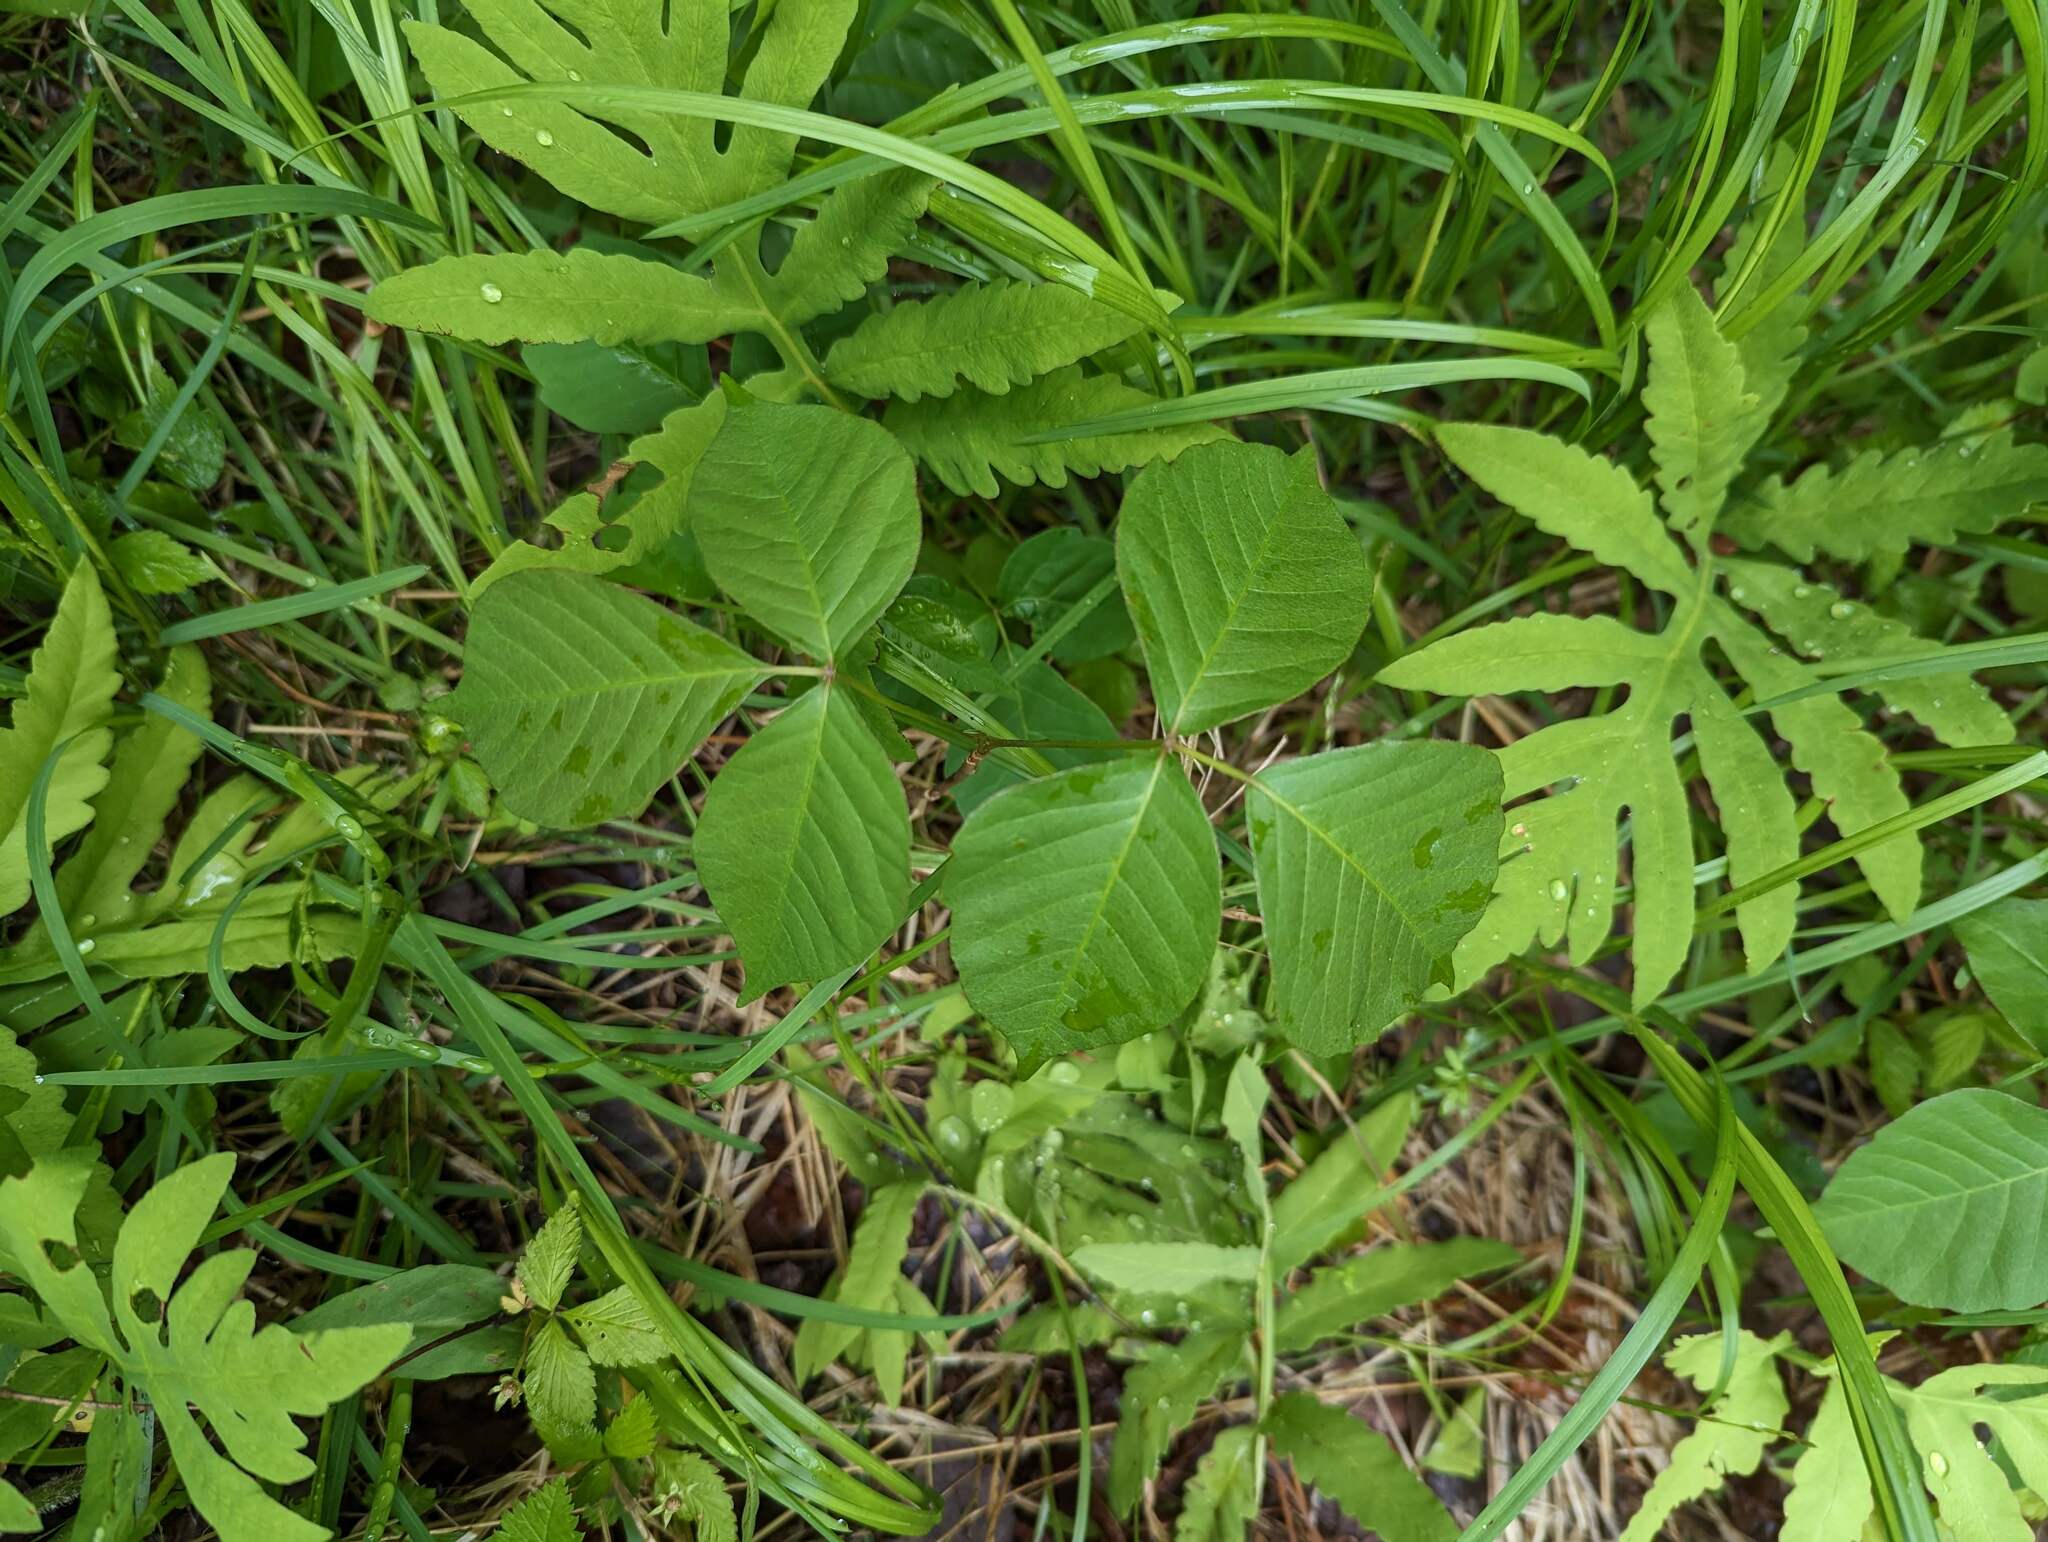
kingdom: Plantae
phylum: Tracheophyta
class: Magnoliopsida
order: Sapindales
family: Anacardiaceae
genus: Toxicodendron
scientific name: Toxicodendron radicans
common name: Poison ivy
